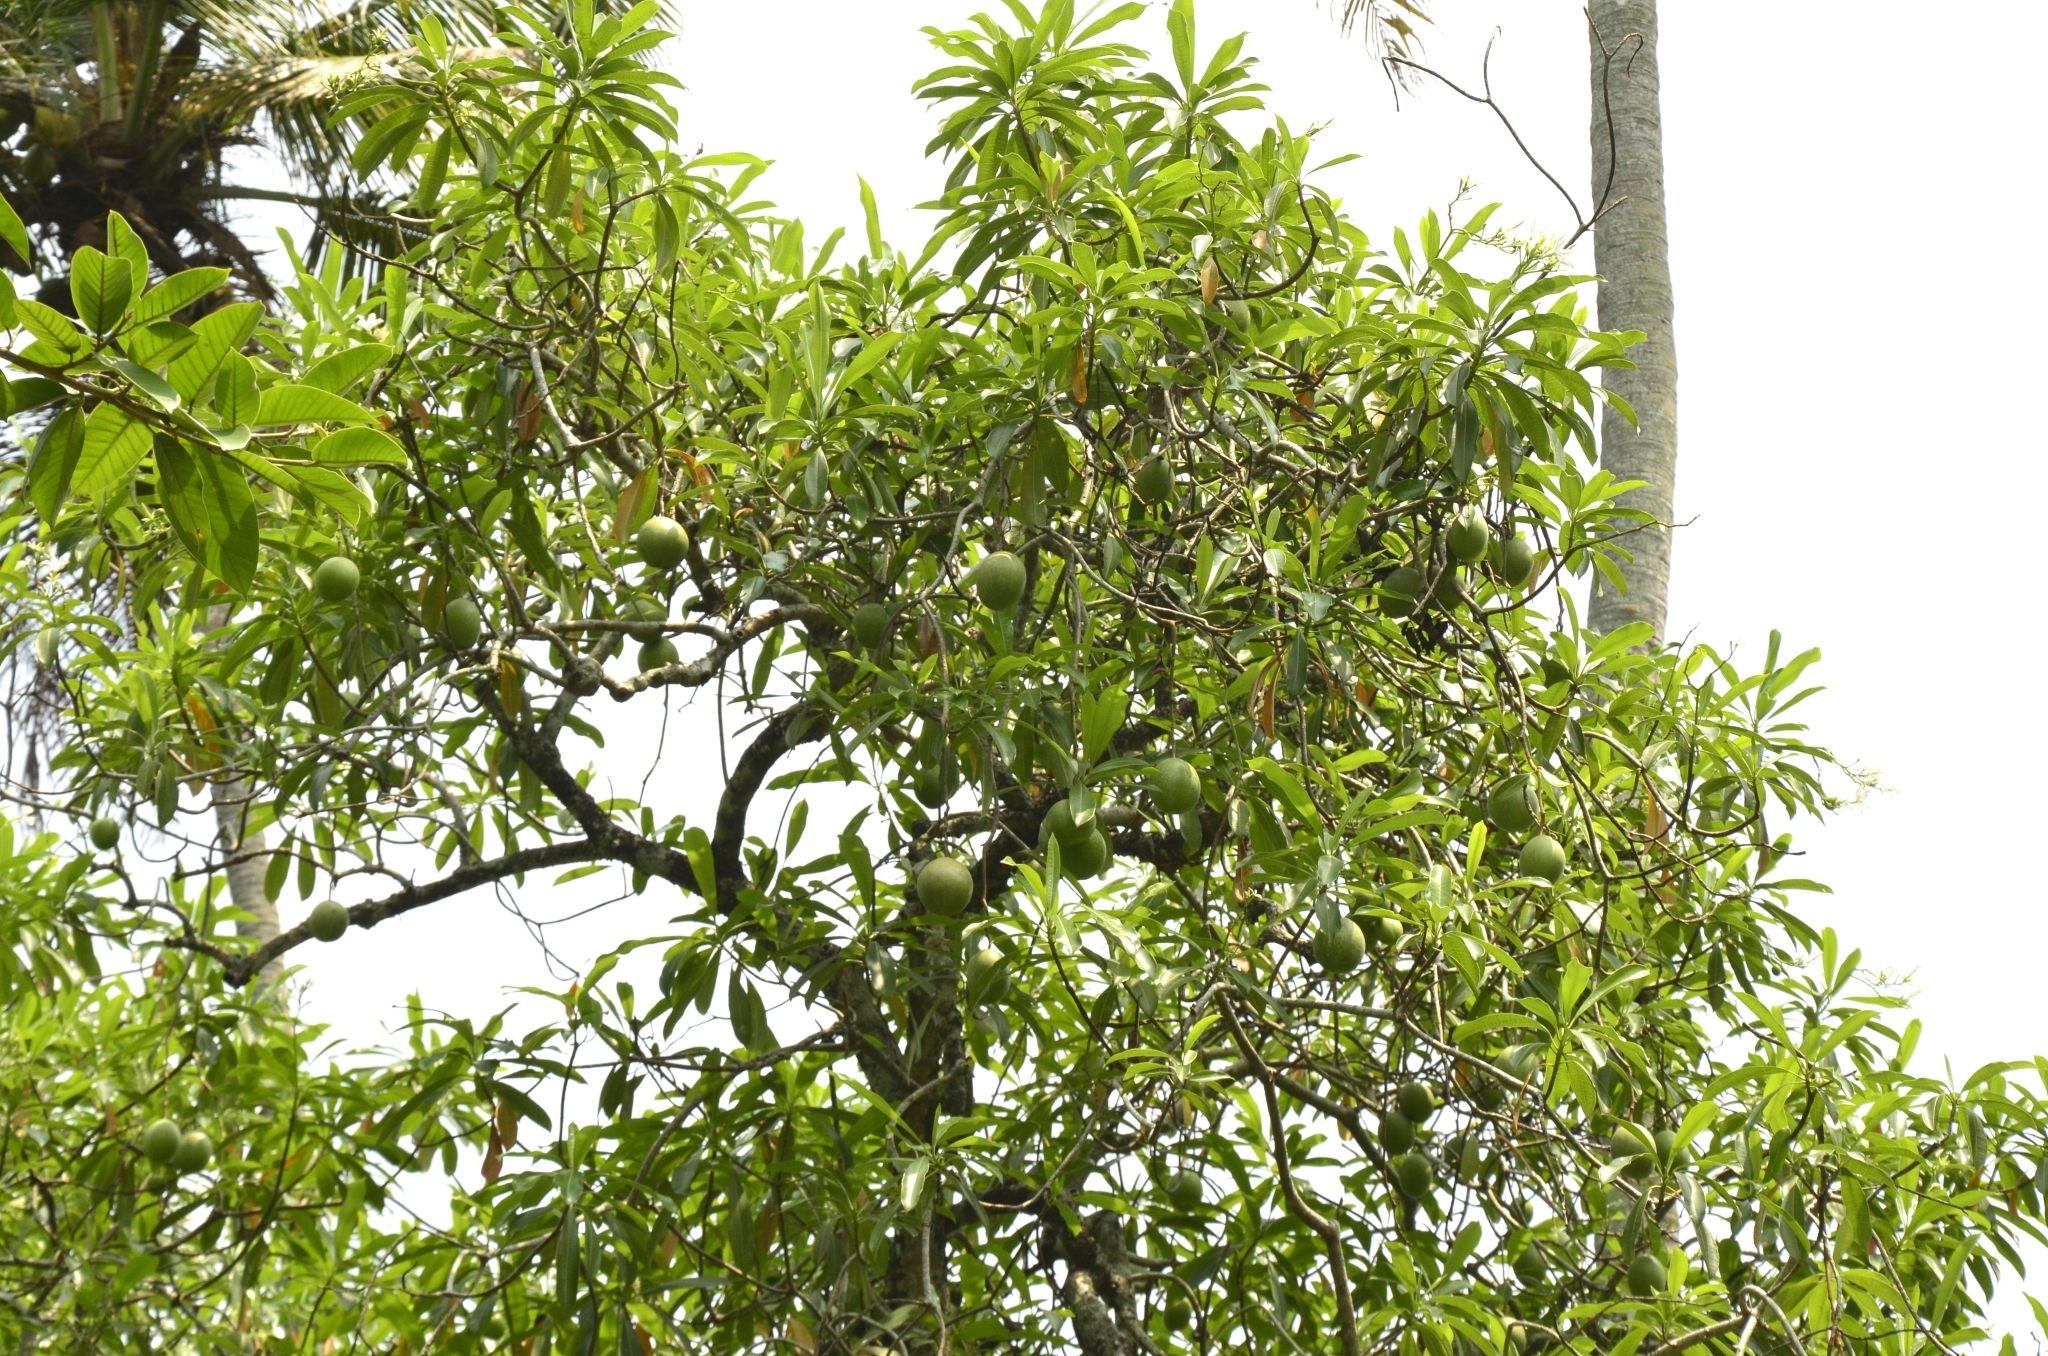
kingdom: Plantae
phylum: Tracheophyta
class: Magnoliopsida
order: Gentianales
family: Apocynaceae
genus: Cerbera
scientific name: Cerbera odollam
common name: Pong-pong
